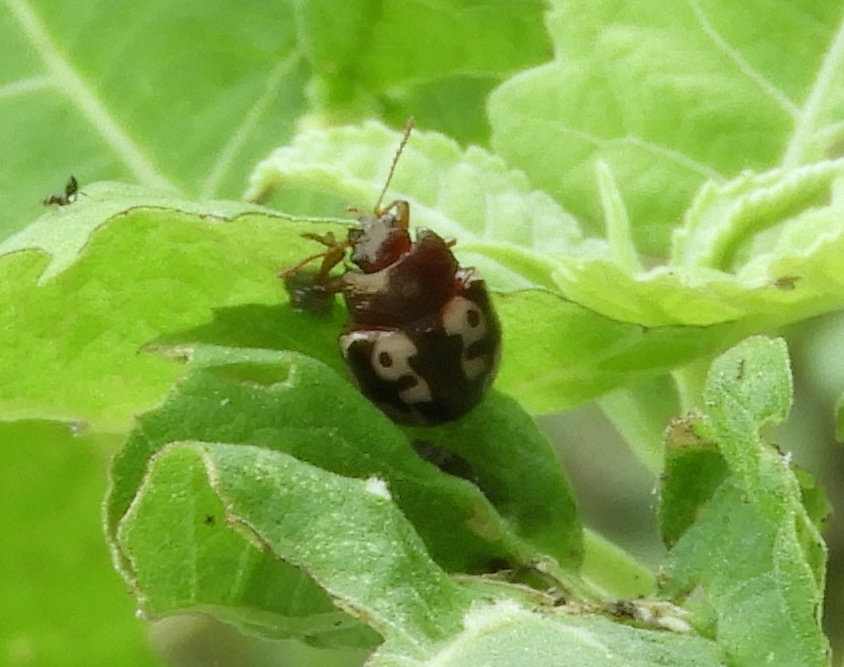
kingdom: Animalia
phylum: Arthropoda
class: Insecta
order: Coleoptera
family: Chrysomelidae
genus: Calligrapha
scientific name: Calligrapha intermedia
